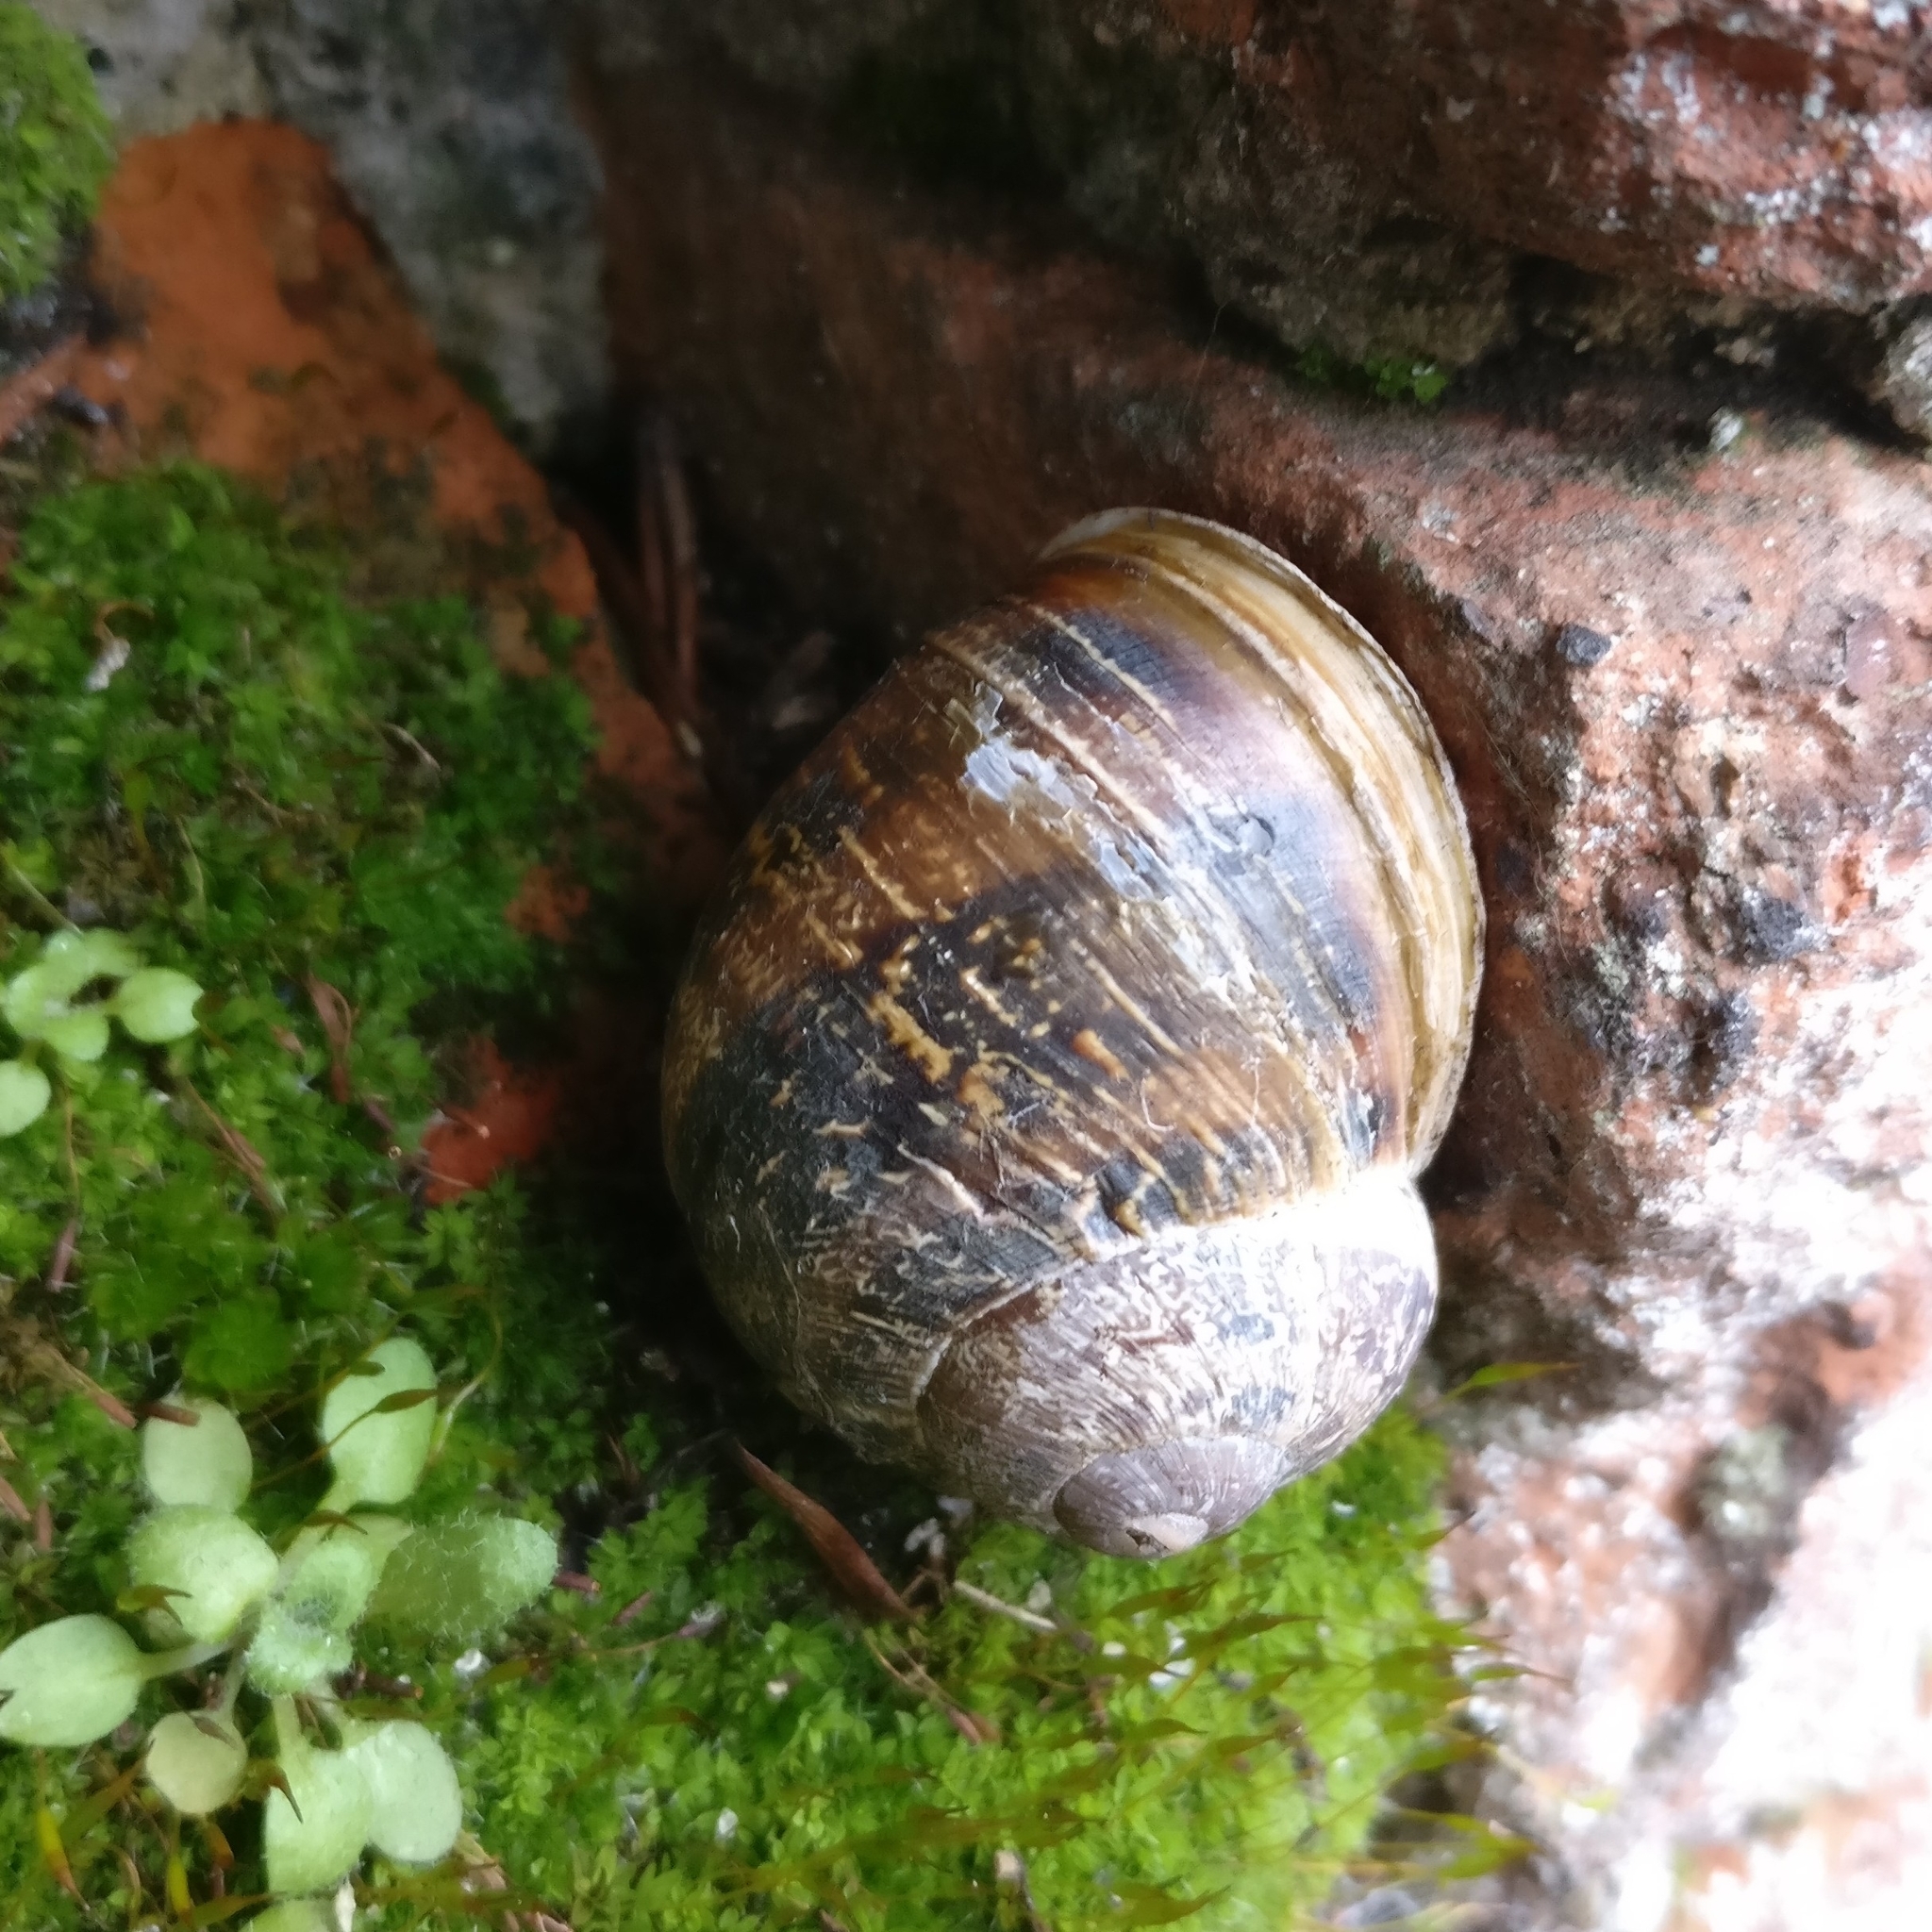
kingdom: Animalia
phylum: Mollusca
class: Gastropoda
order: Stylommatophora
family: Helicidae
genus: Cornu
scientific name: Cornu aspersum
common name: Brown garden snail
